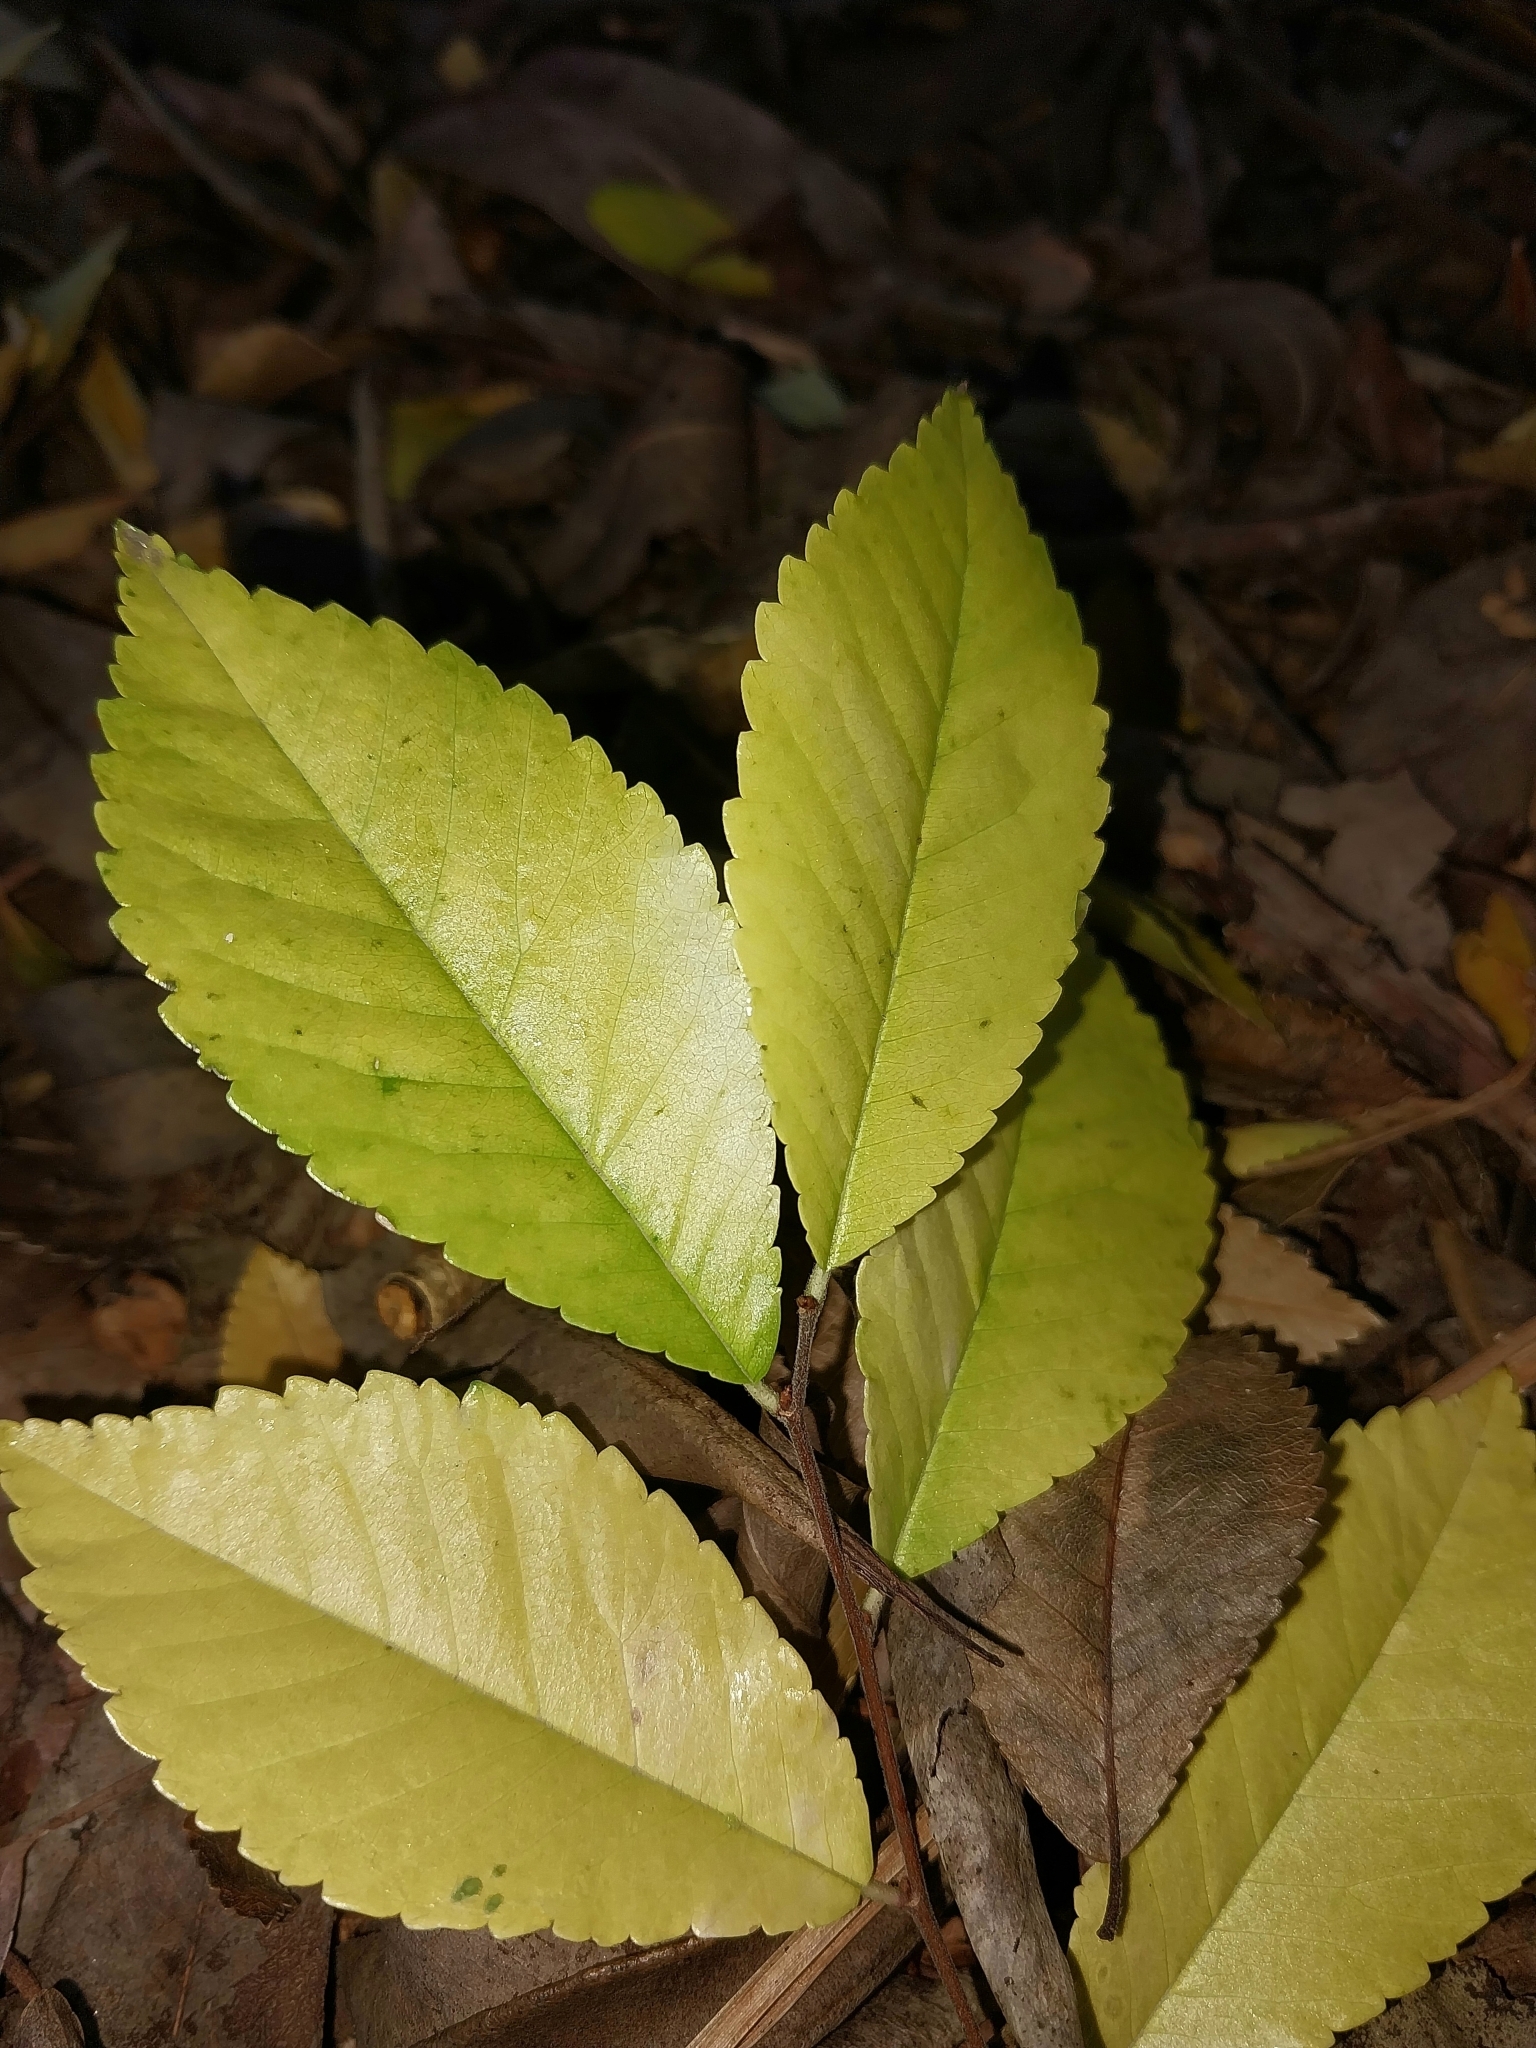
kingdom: Plantae
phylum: Tracheophyta
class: Magnoliopsida
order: Rosales
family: Ulmaceae
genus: Ulmus
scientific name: Ulmus parvifolia
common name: Chinese elm
